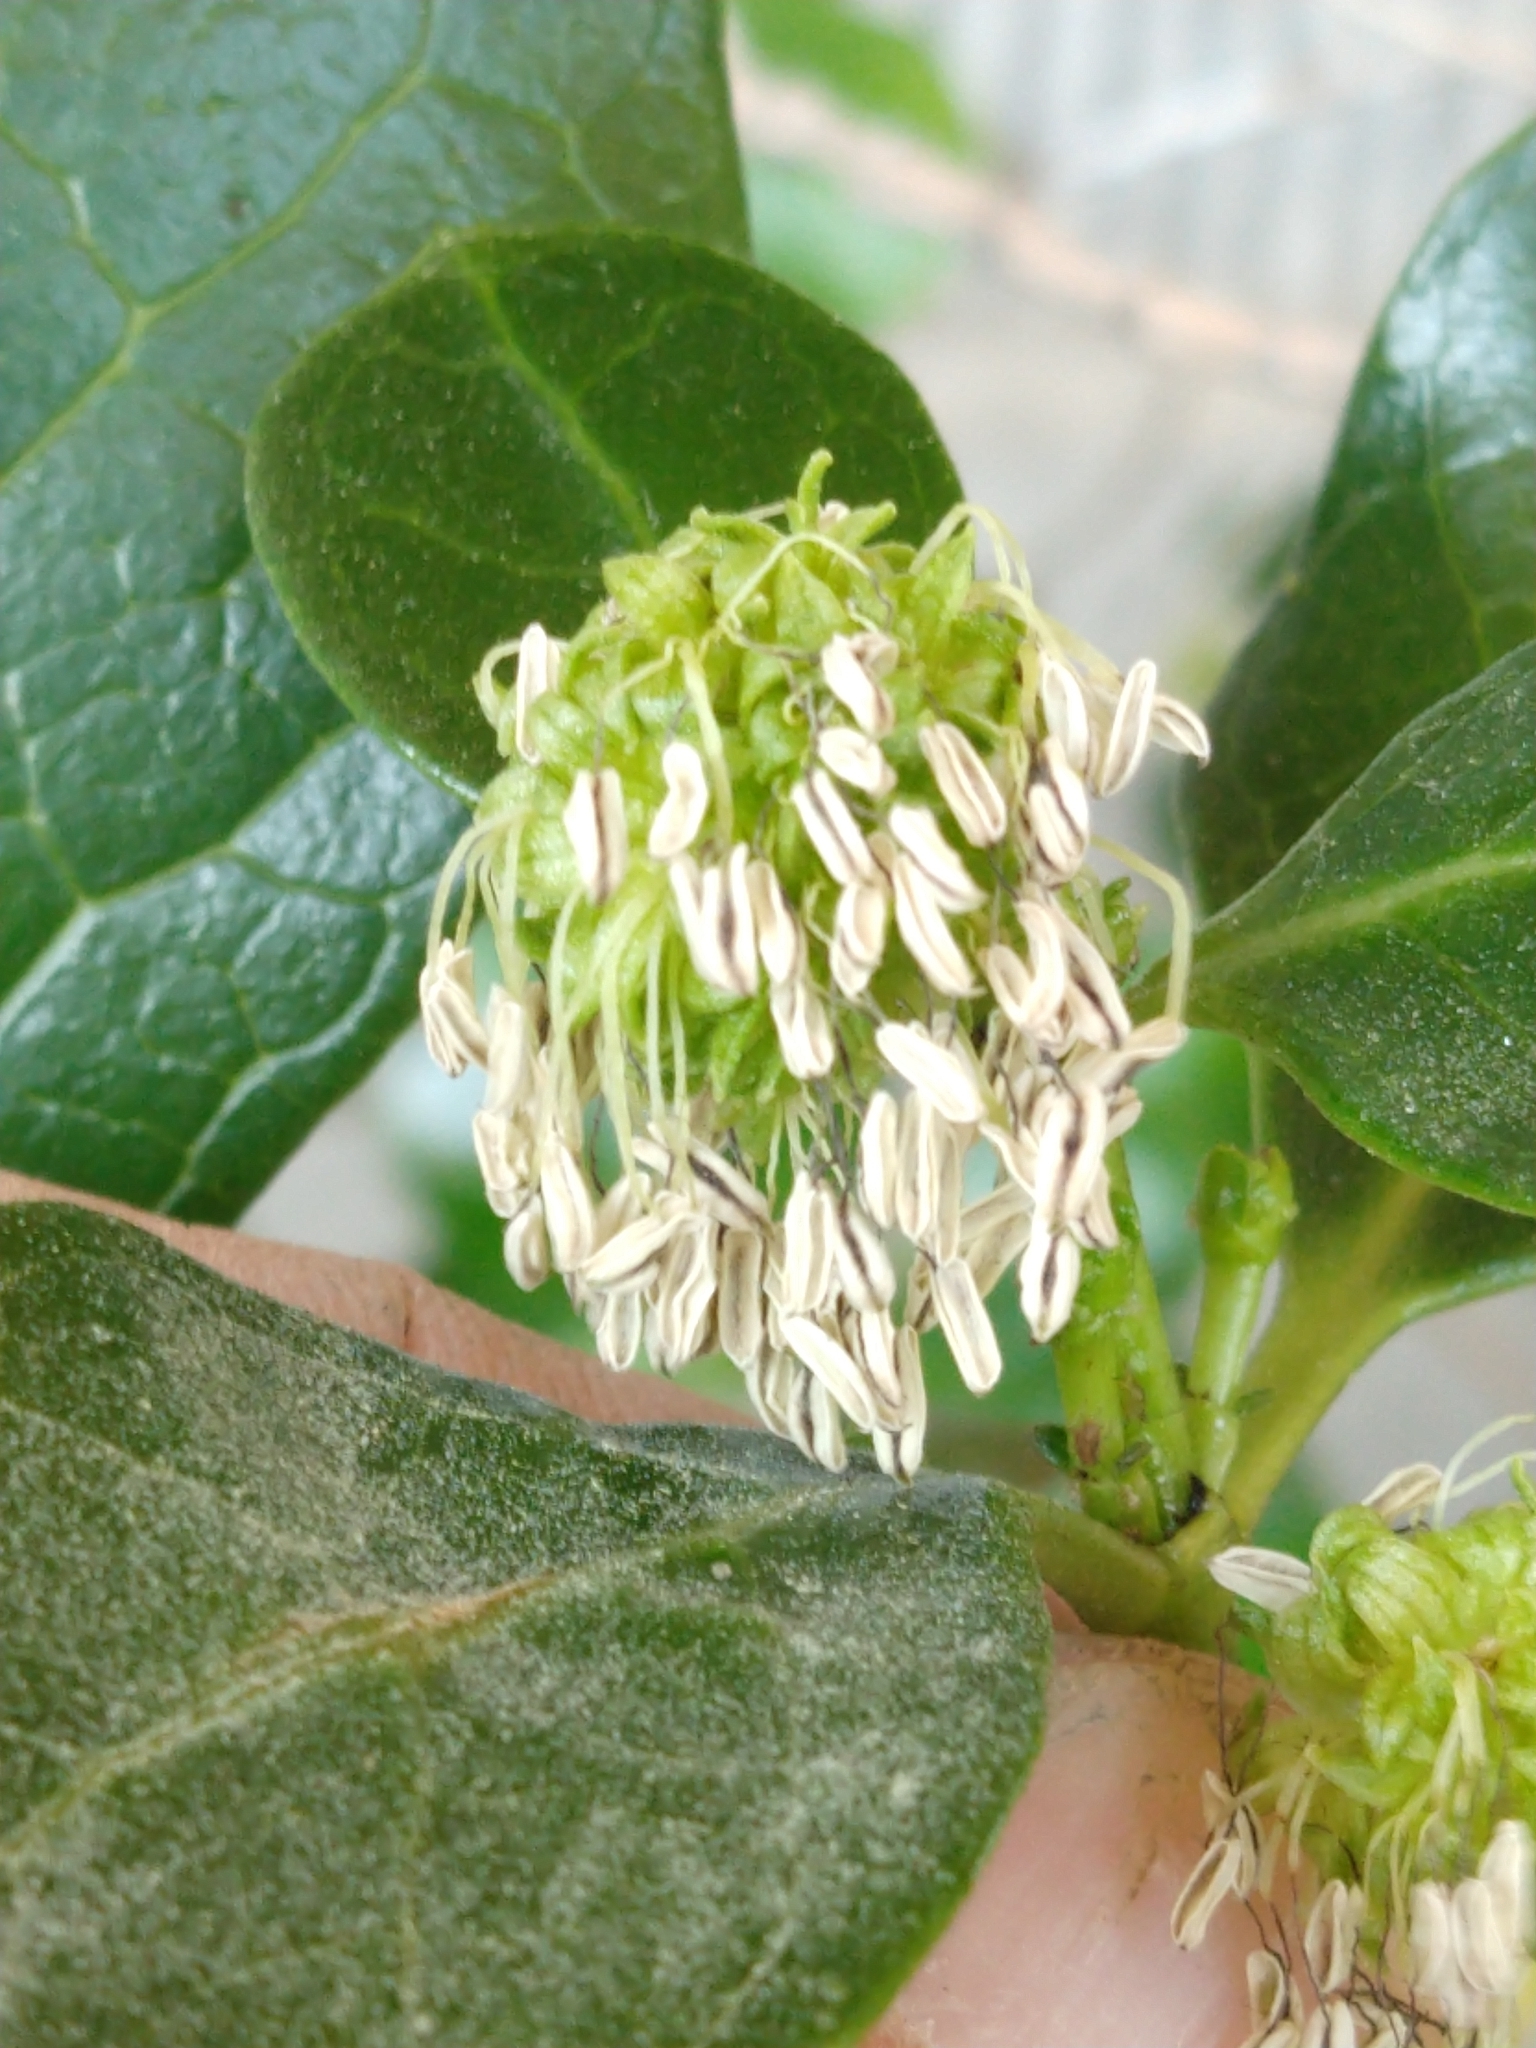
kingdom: Plantae
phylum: Tracheophyta
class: Magnoliopsida
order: Gentianales
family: Rubiaceae
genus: Coprosma
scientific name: Coprosma repens
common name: Tree bedstraw
